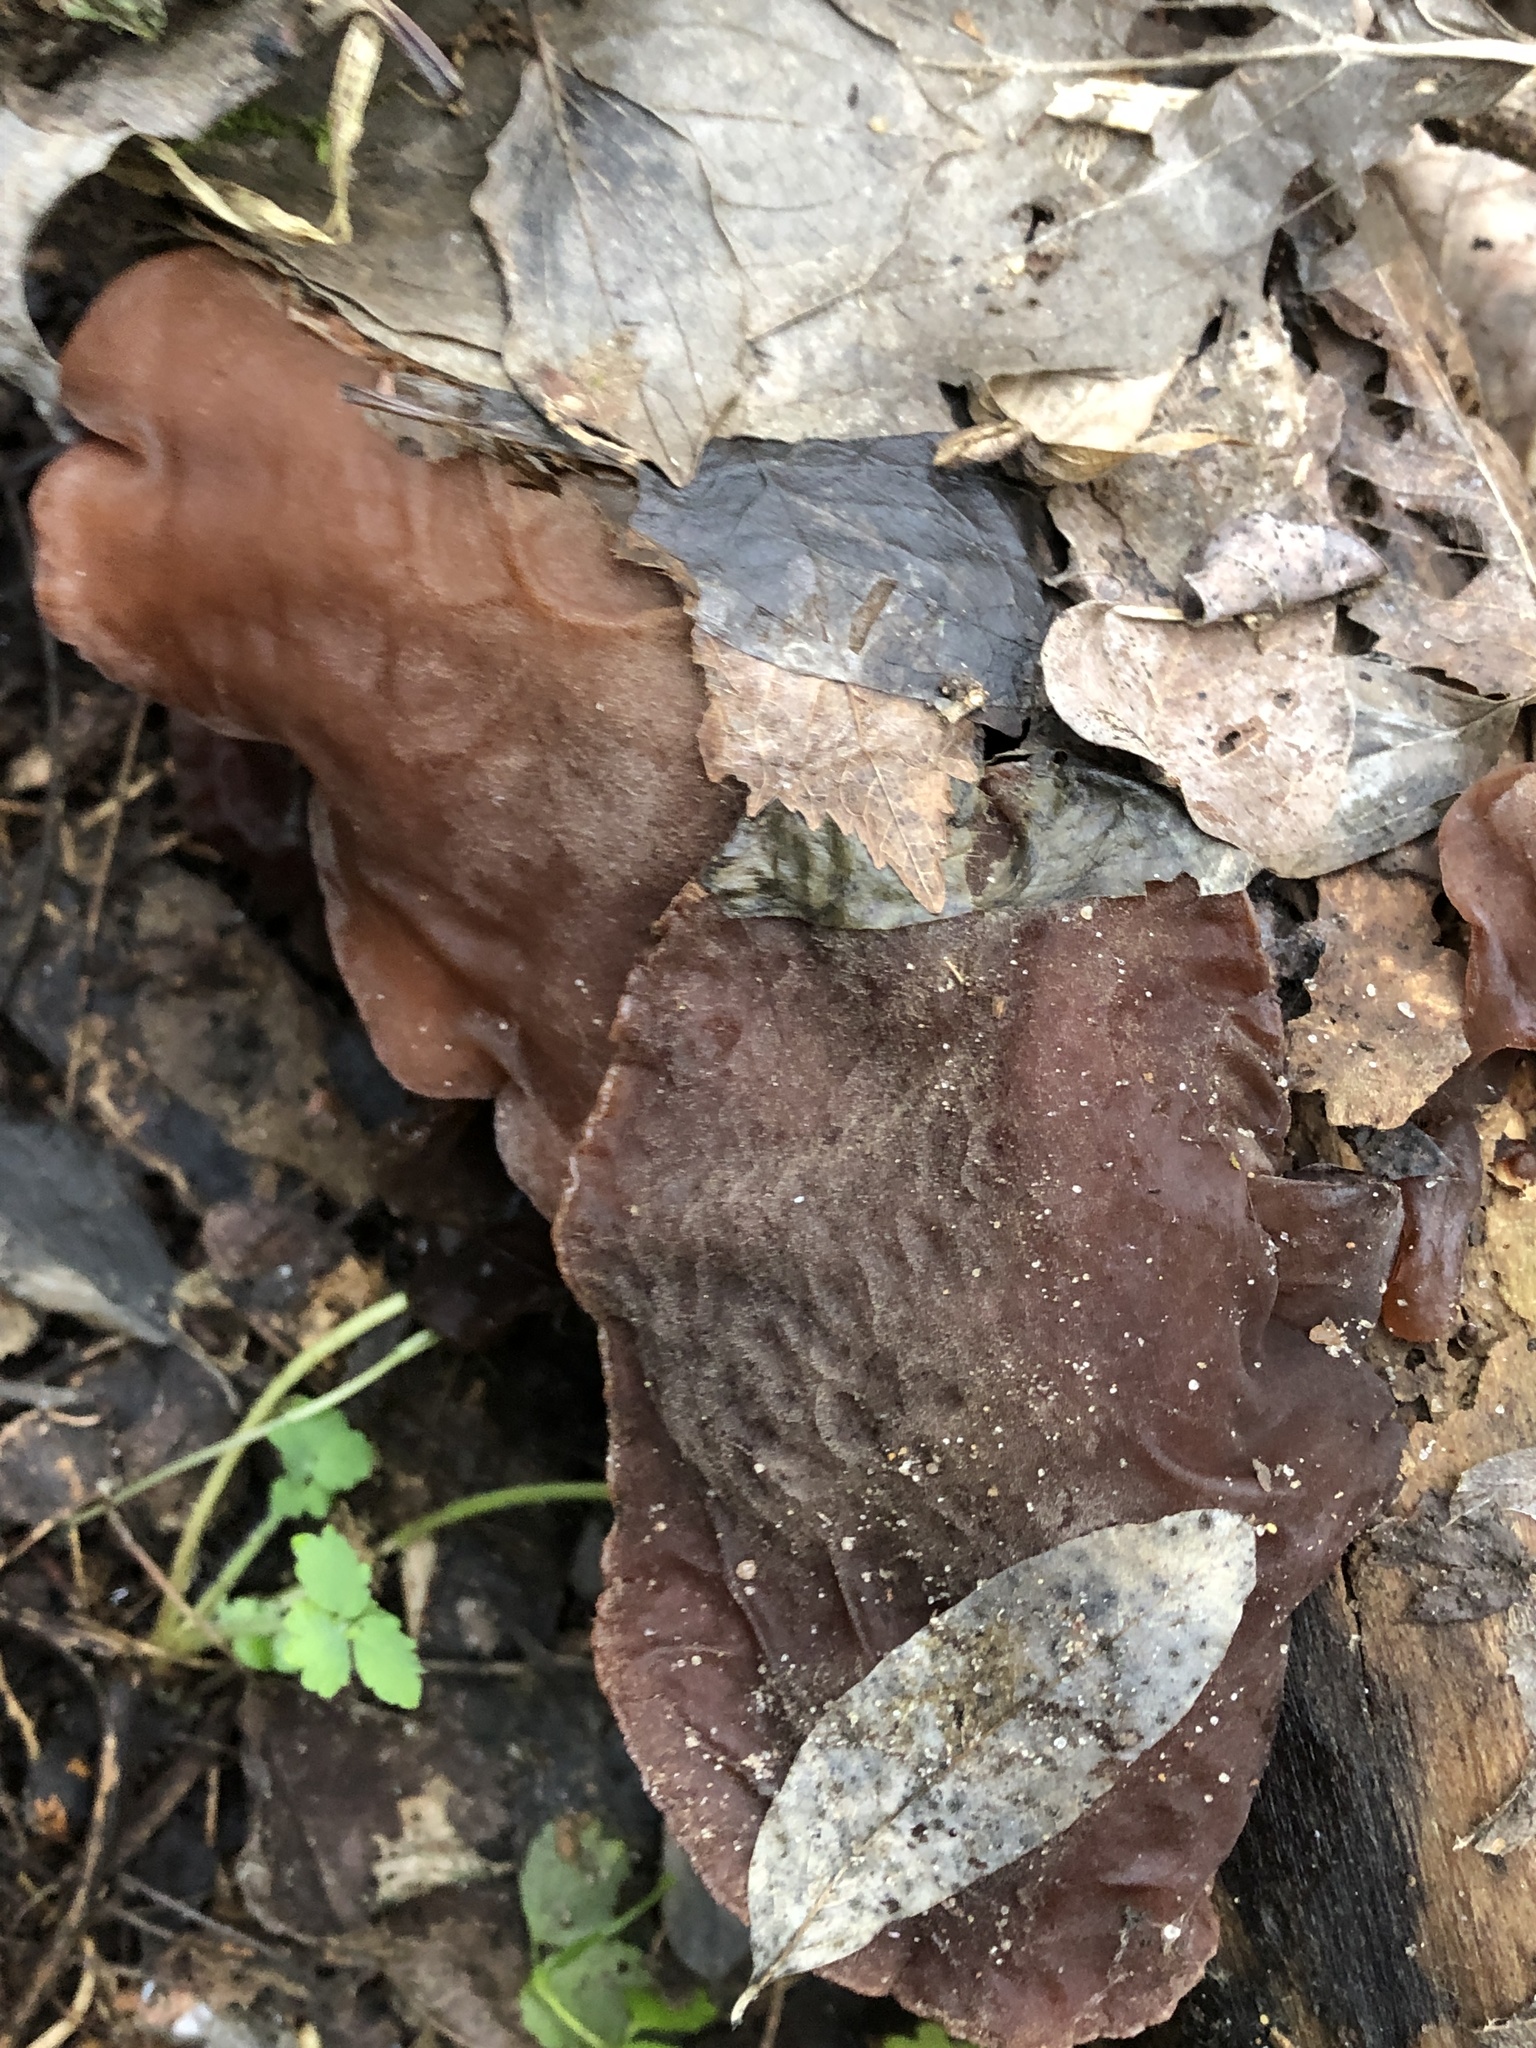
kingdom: Fungi
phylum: Basidiomycota
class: Agaricomycetes
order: Auriculariales
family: Auriculariaceae
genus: Auricularia
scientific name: Auricularia auricula-judae
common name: Jelly ear
